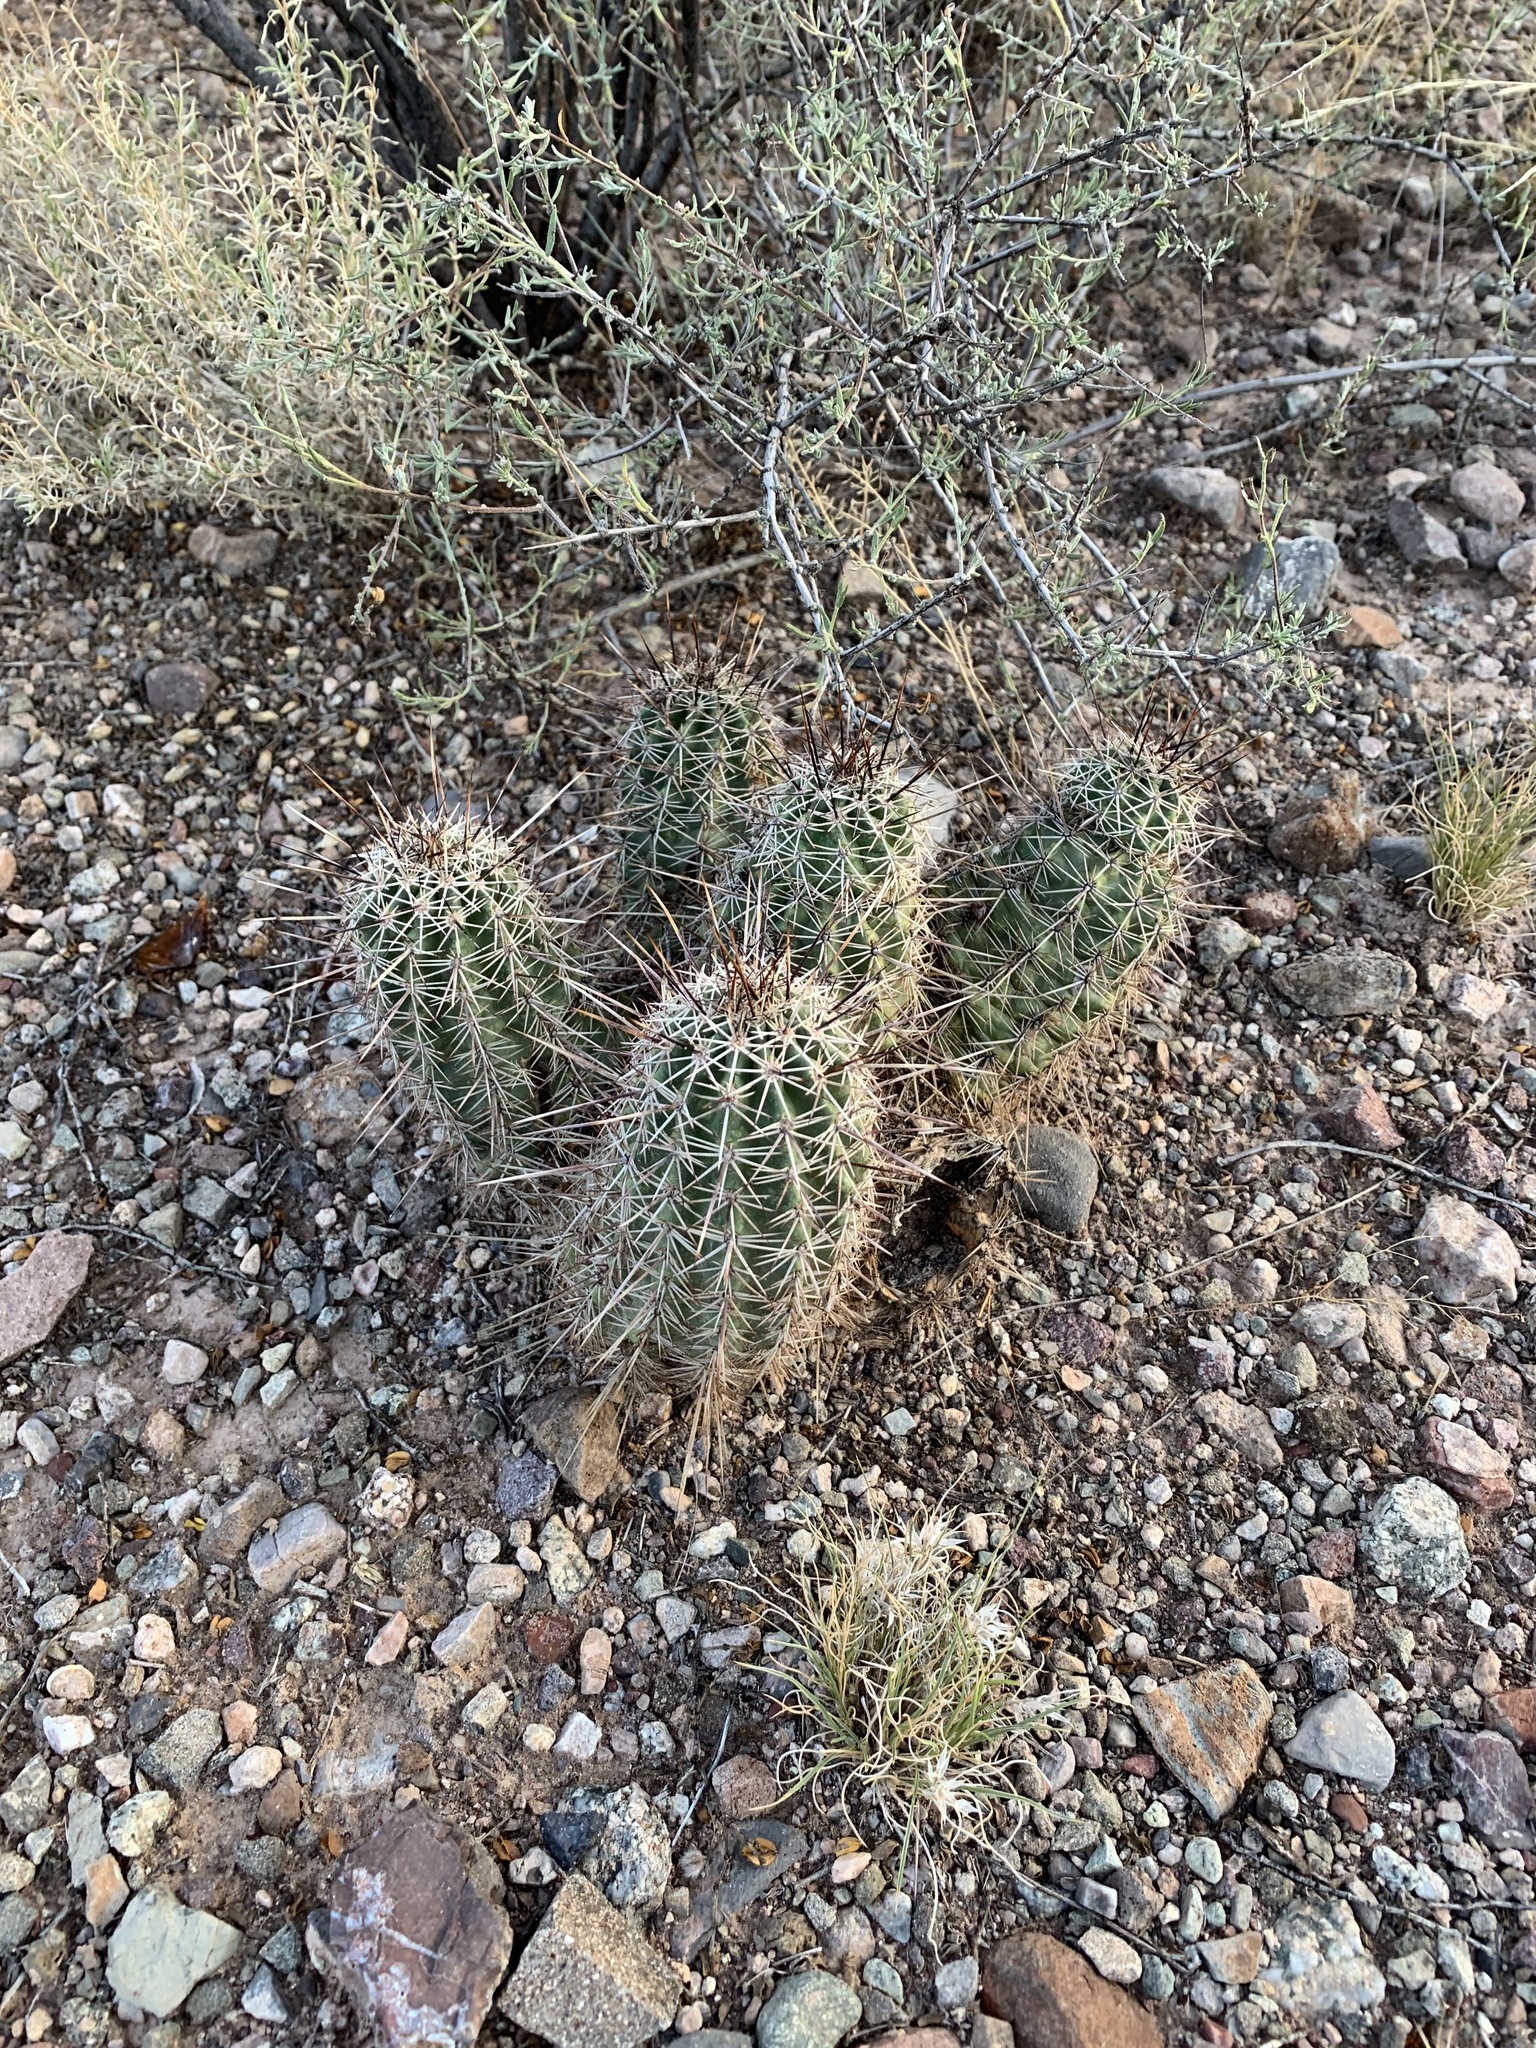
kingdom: Plantae
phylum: Tracheophyta
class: Magnoliopsida
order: Caryophyllales
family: Cactaceae
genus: Echinocereus
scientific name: Echinocereus fasciculatus
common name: Bundle hedgehog
